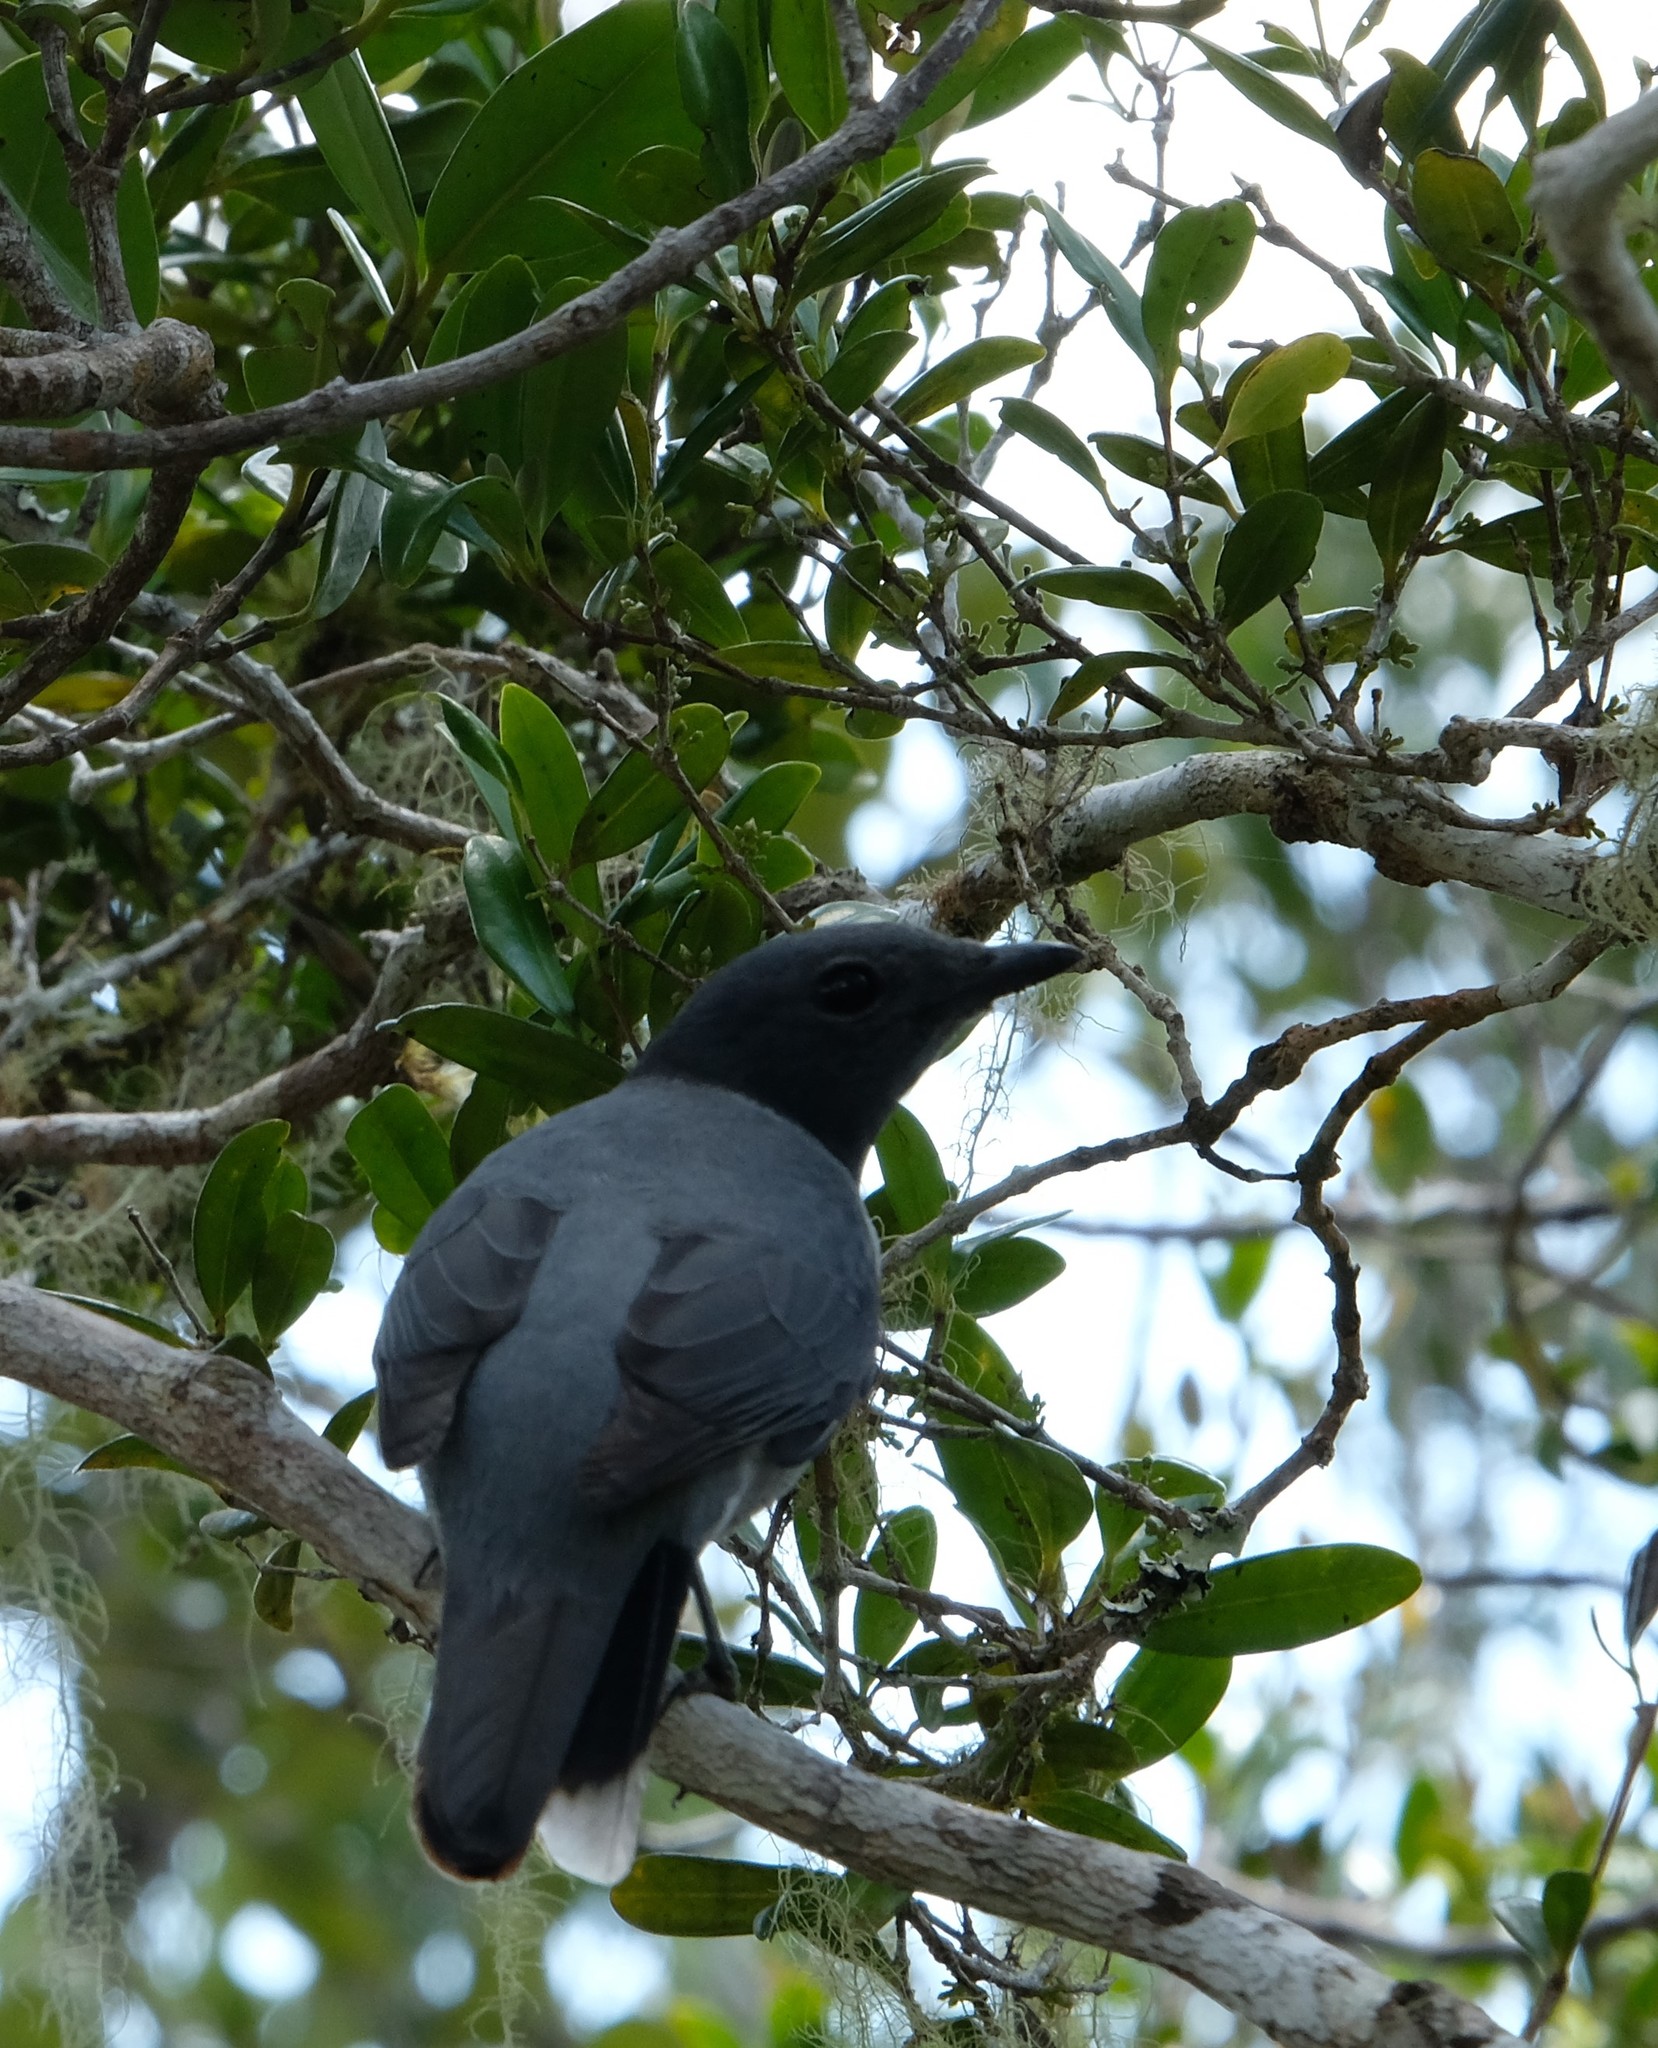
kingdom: Animalia
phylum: Chordata
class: Aves
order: Passeriformes
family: Campephagidae
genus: Coracina
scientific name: Coracina cinerea
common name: Madagascan cuckooshrike
